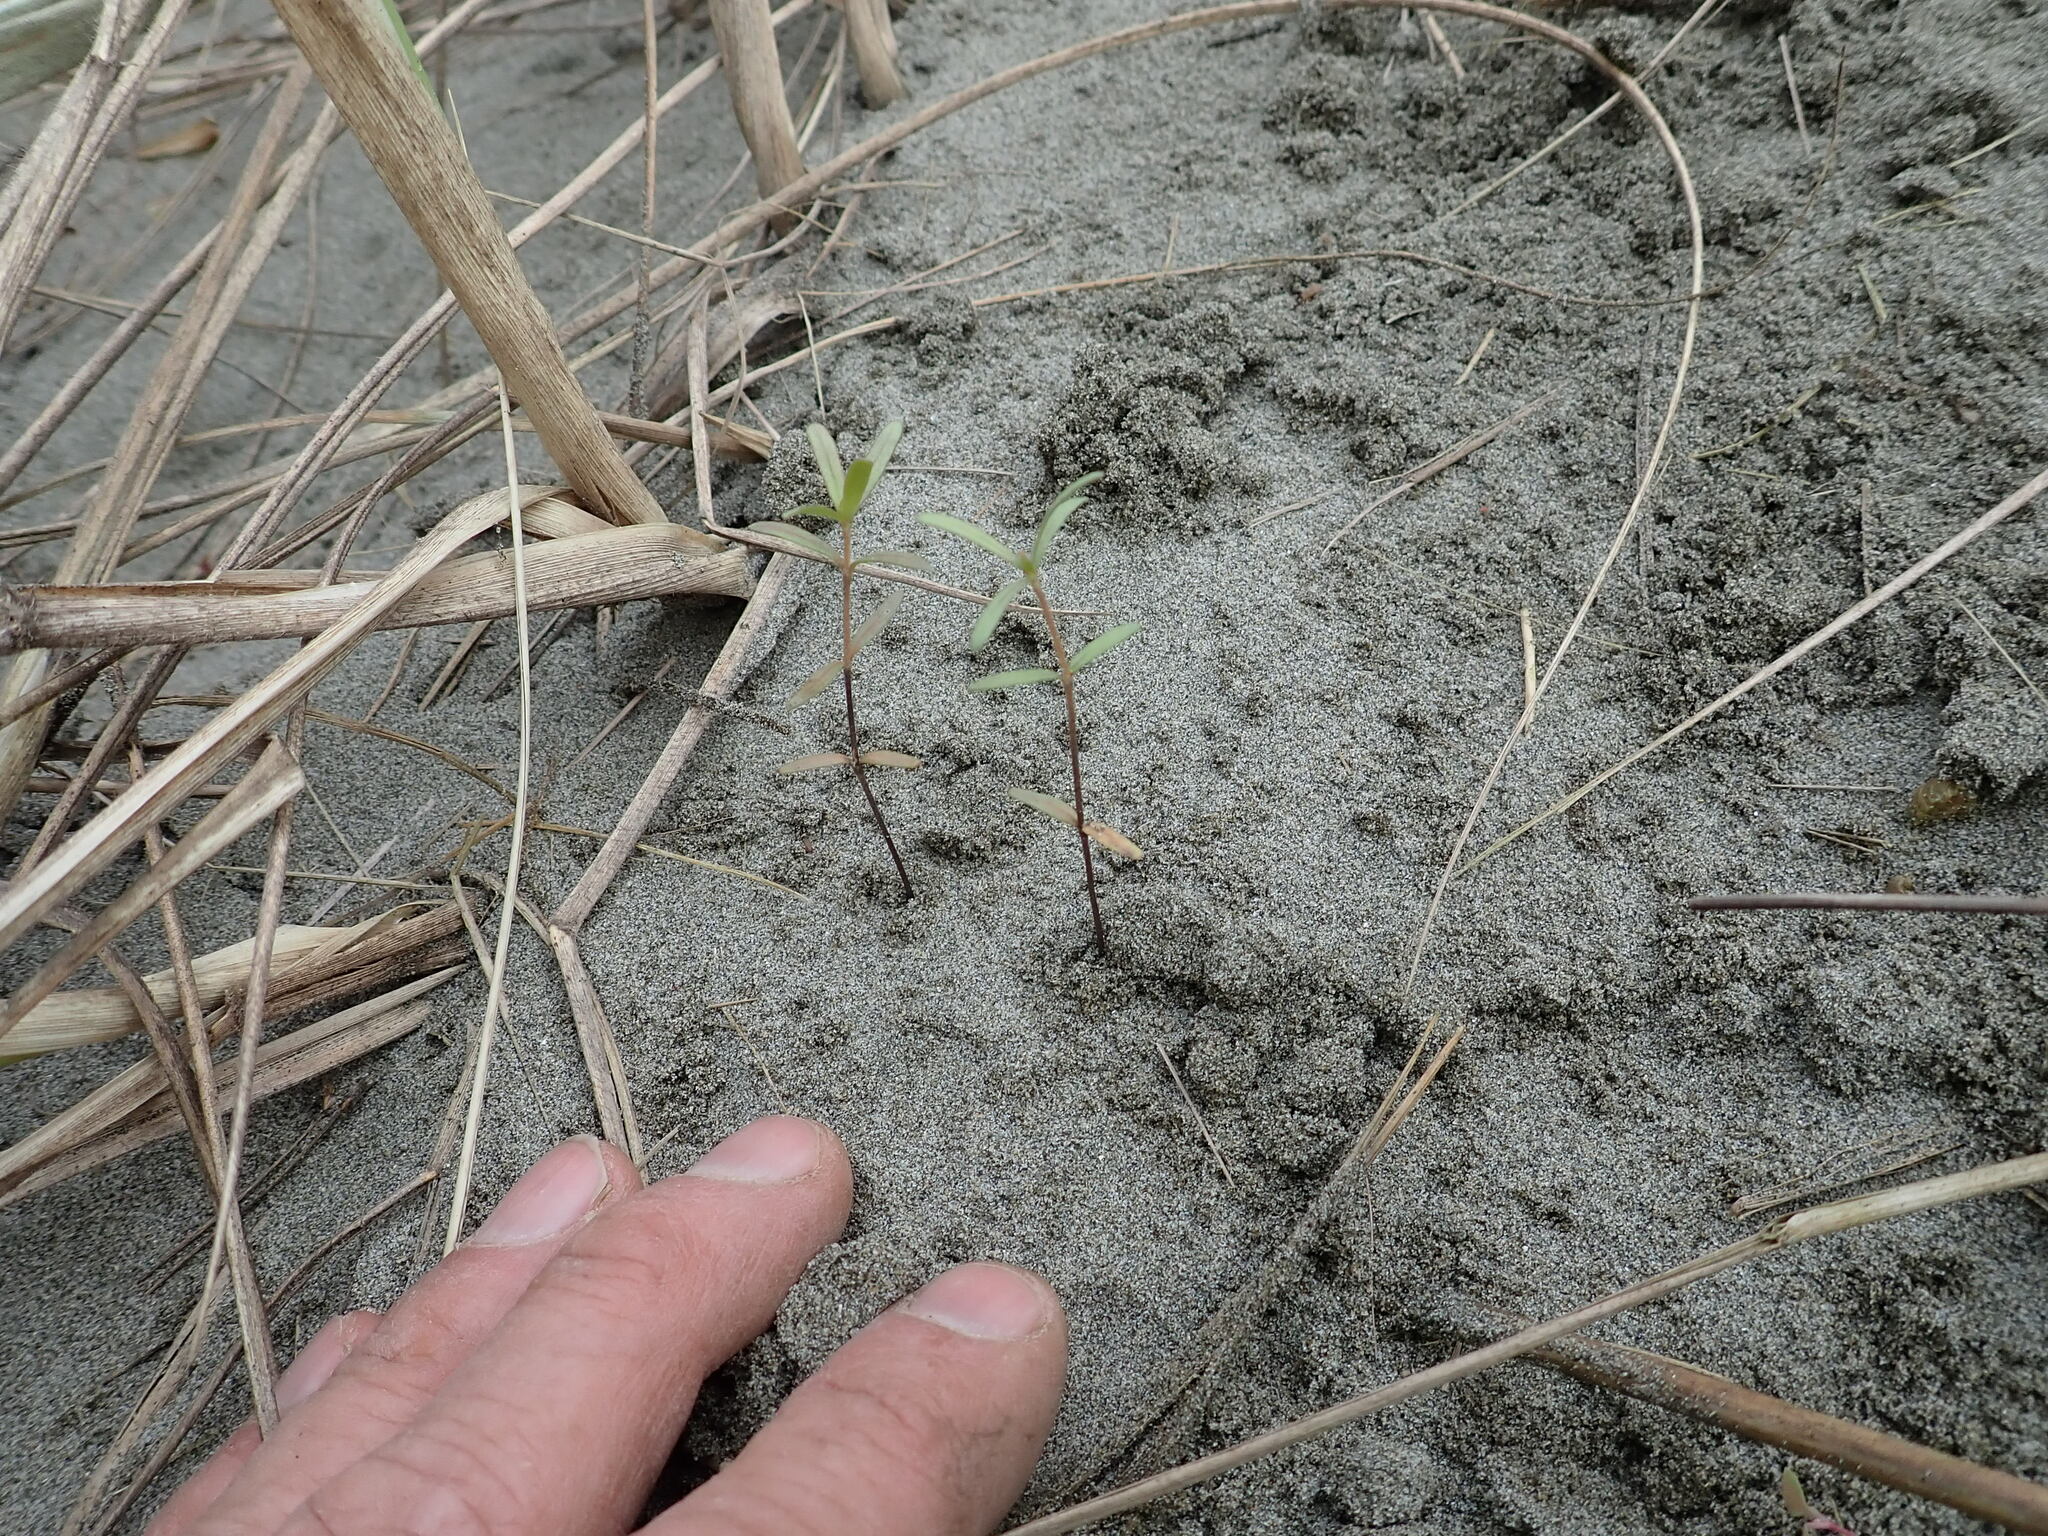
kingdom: Plantae
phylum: Tracheophyta
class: Magnoliopsida
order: Gentianales
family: Rubiaceae
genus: Coprosma
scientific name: Coprosma acerosa
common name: Sand coprosma
